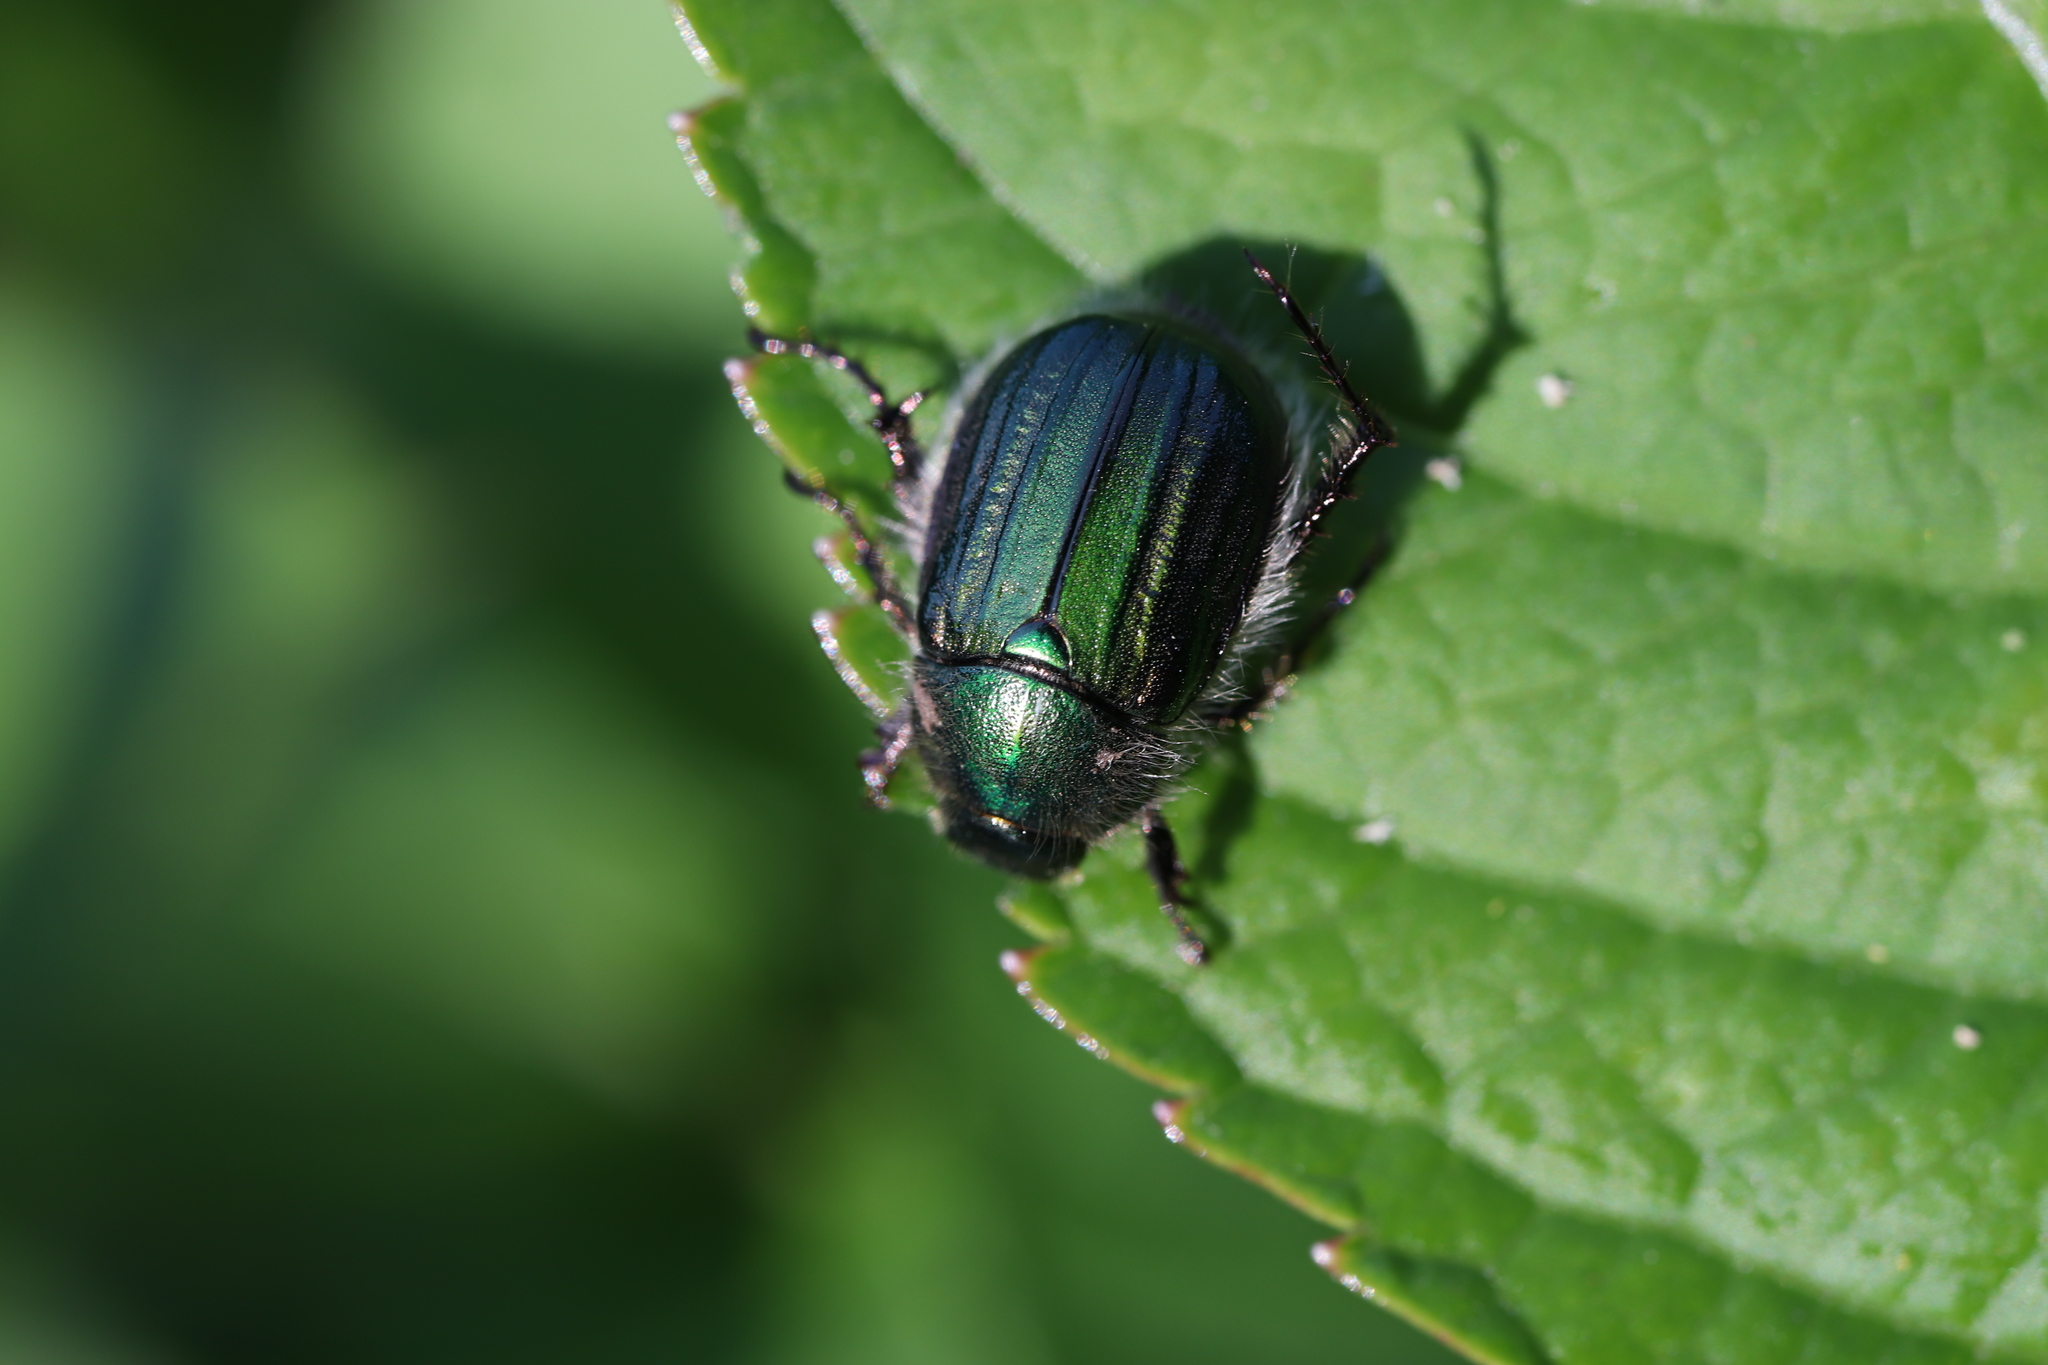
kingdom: Animalia
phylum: Arthropoda
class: Insecta
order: Coleoptera
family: Scarabaeidae
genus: Anomala
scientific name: Anomala octiescostata
